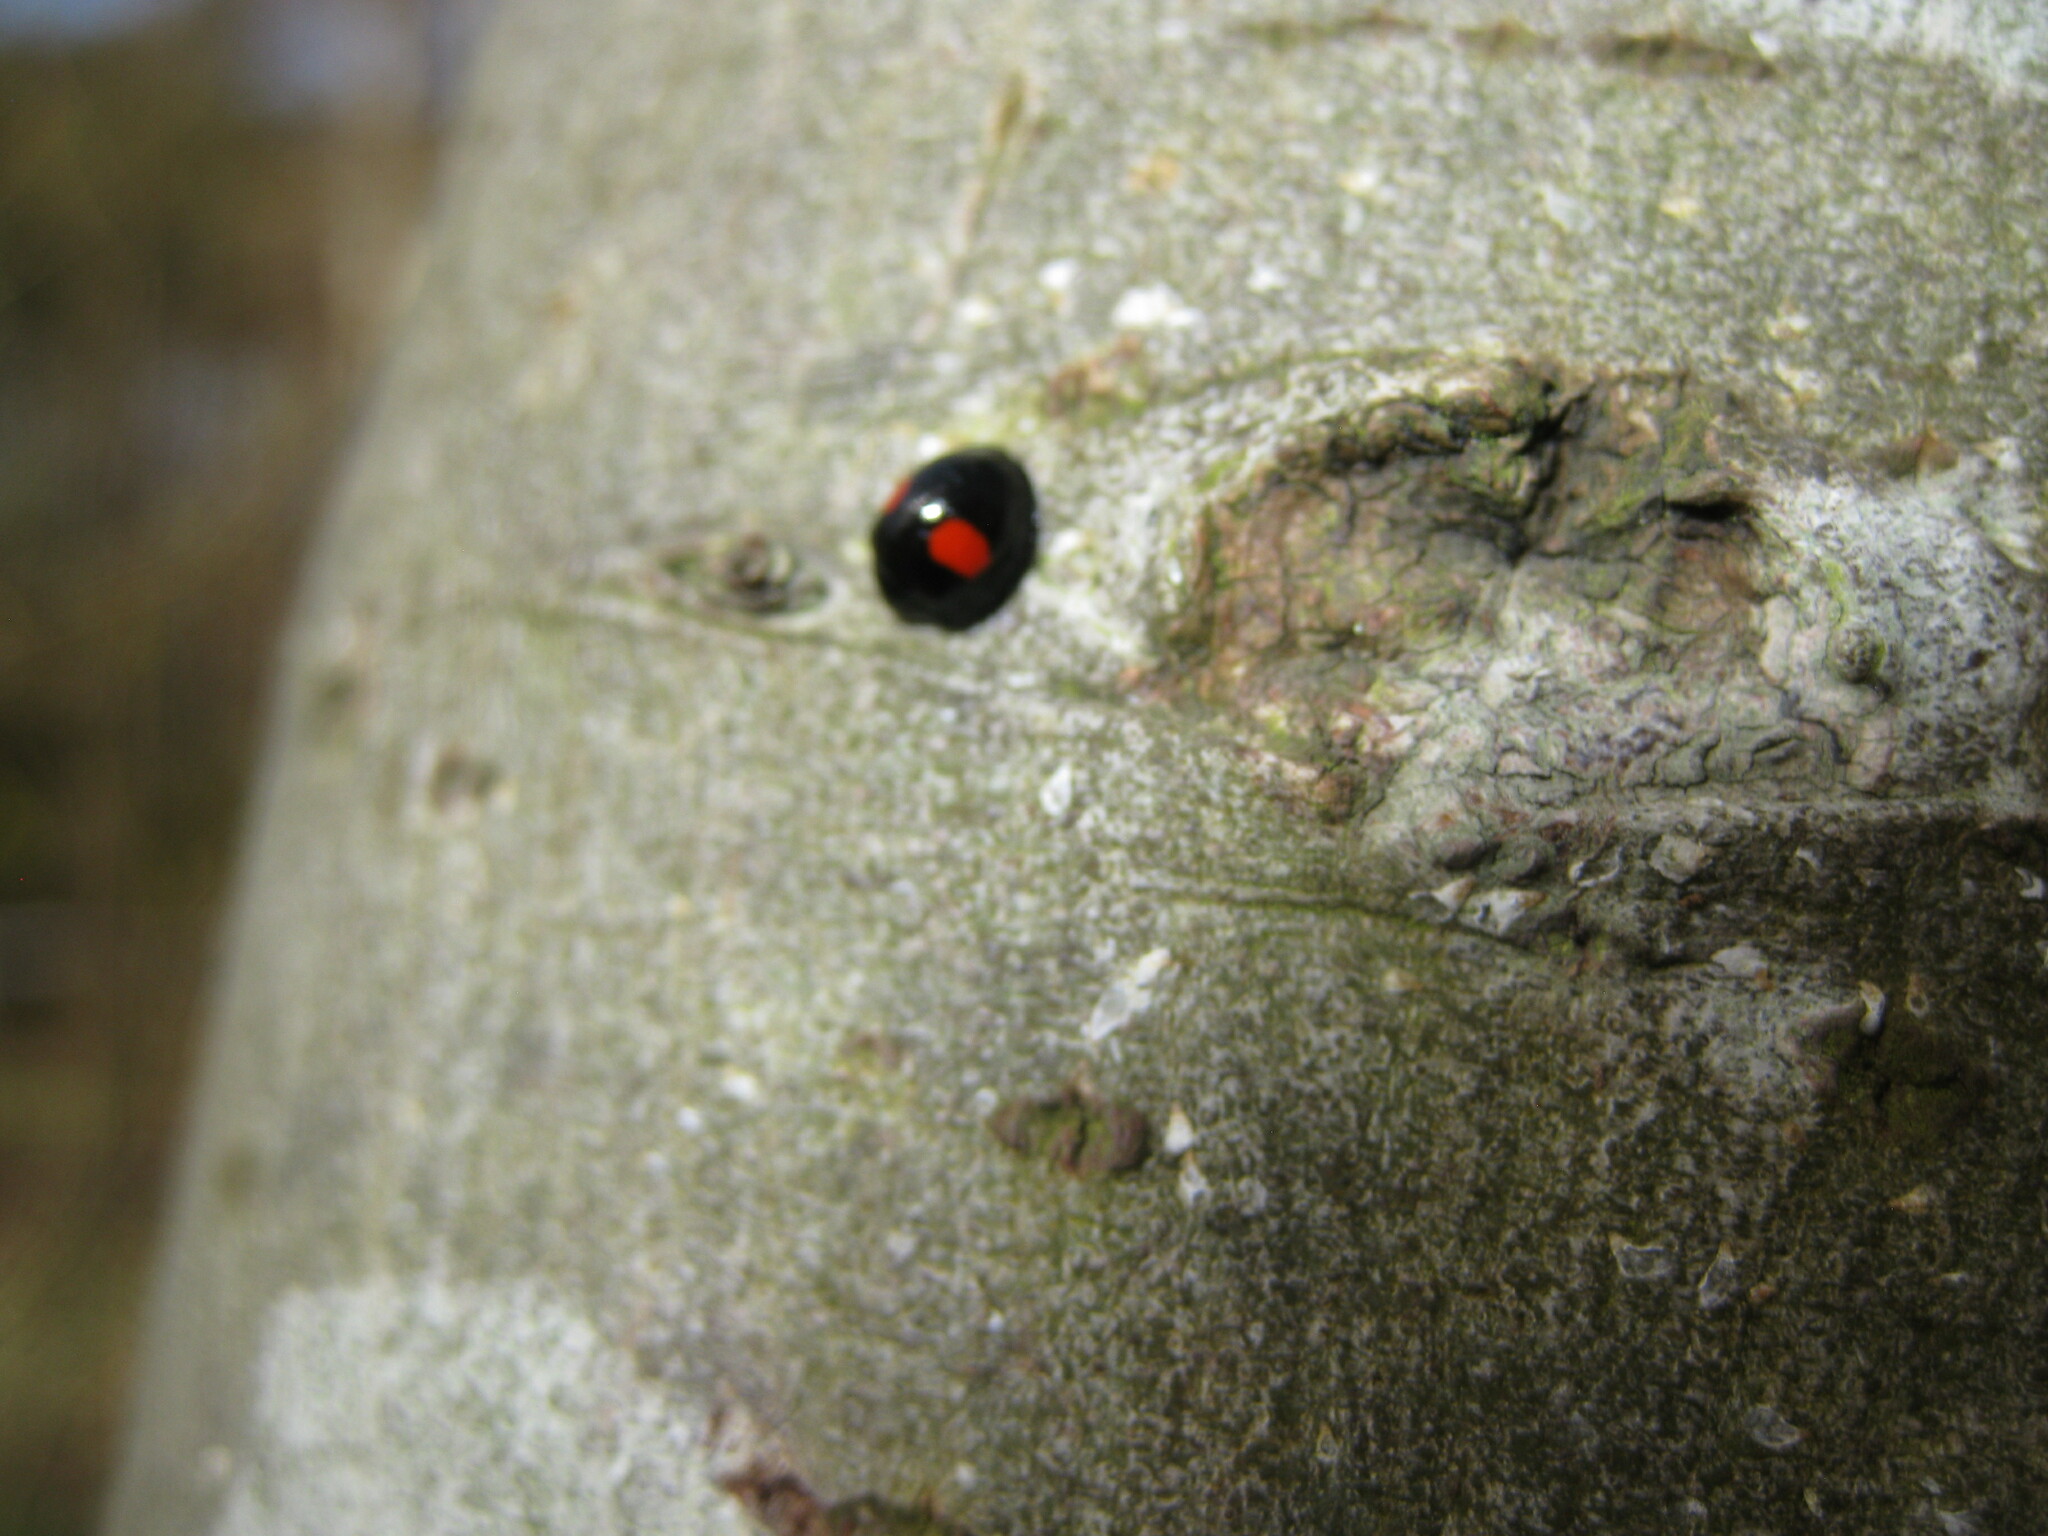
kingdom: Animalia
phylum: Arthropoda
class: Insecta
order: Coleoptera
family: Coccinellidae
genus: Chilocorus
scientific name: Chilocorus renipustulatus
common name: Kidney-spot ladybird
